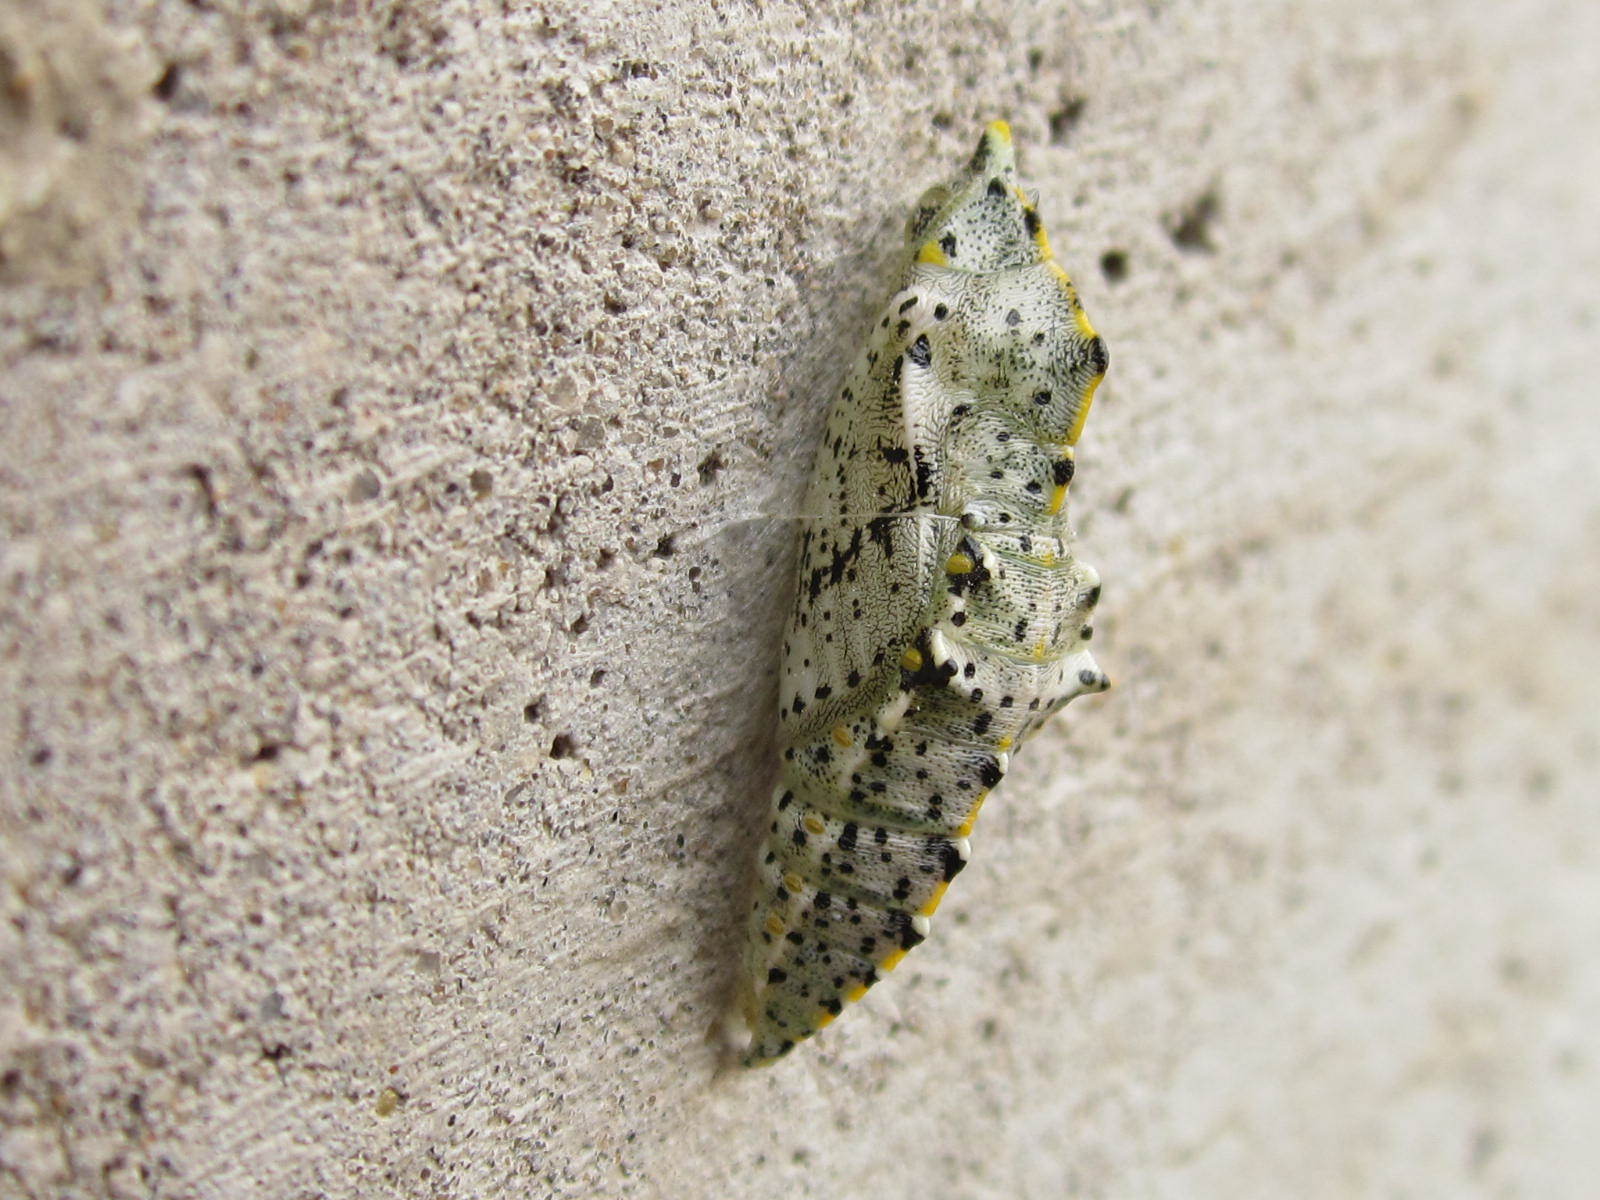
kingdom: Animalia
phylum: Arthropoda
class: Insecta
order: Lepidoptera
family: Pieridae
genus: Pieris
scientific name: Pieris brassicae
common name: Large white
